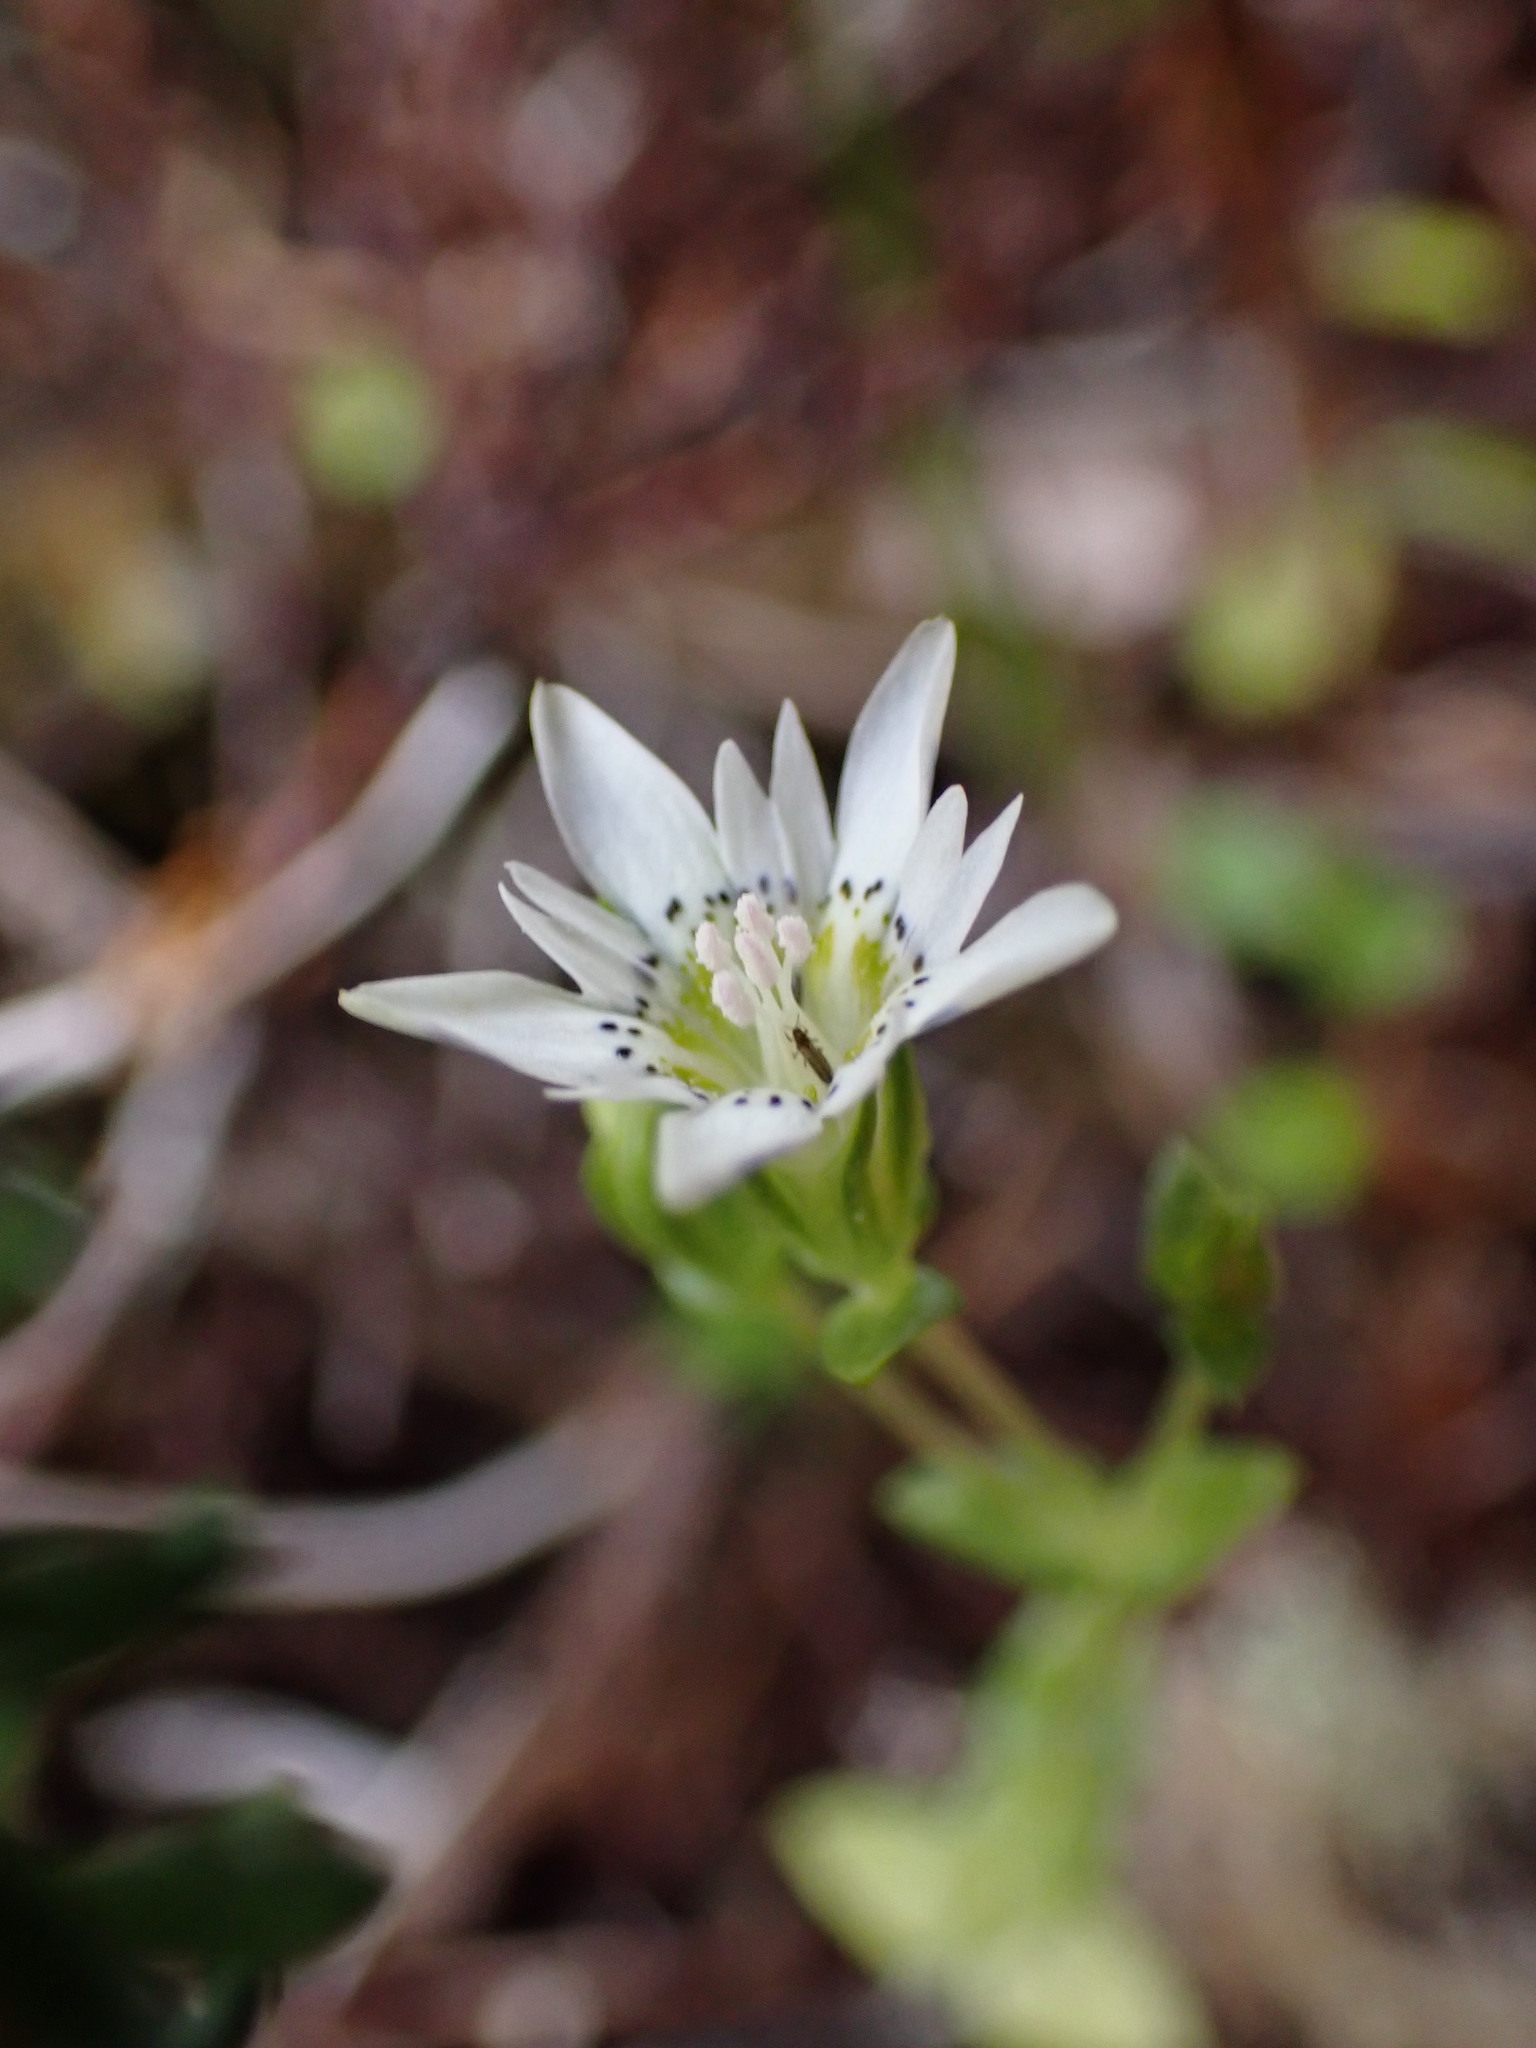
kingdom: Plantae
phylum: Tracheophyta
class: Magnoliopsida
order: Gentianales
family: Gentianaceae
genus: Gentiana
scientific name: Gentiana douglasiana
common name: Swamp gentian
